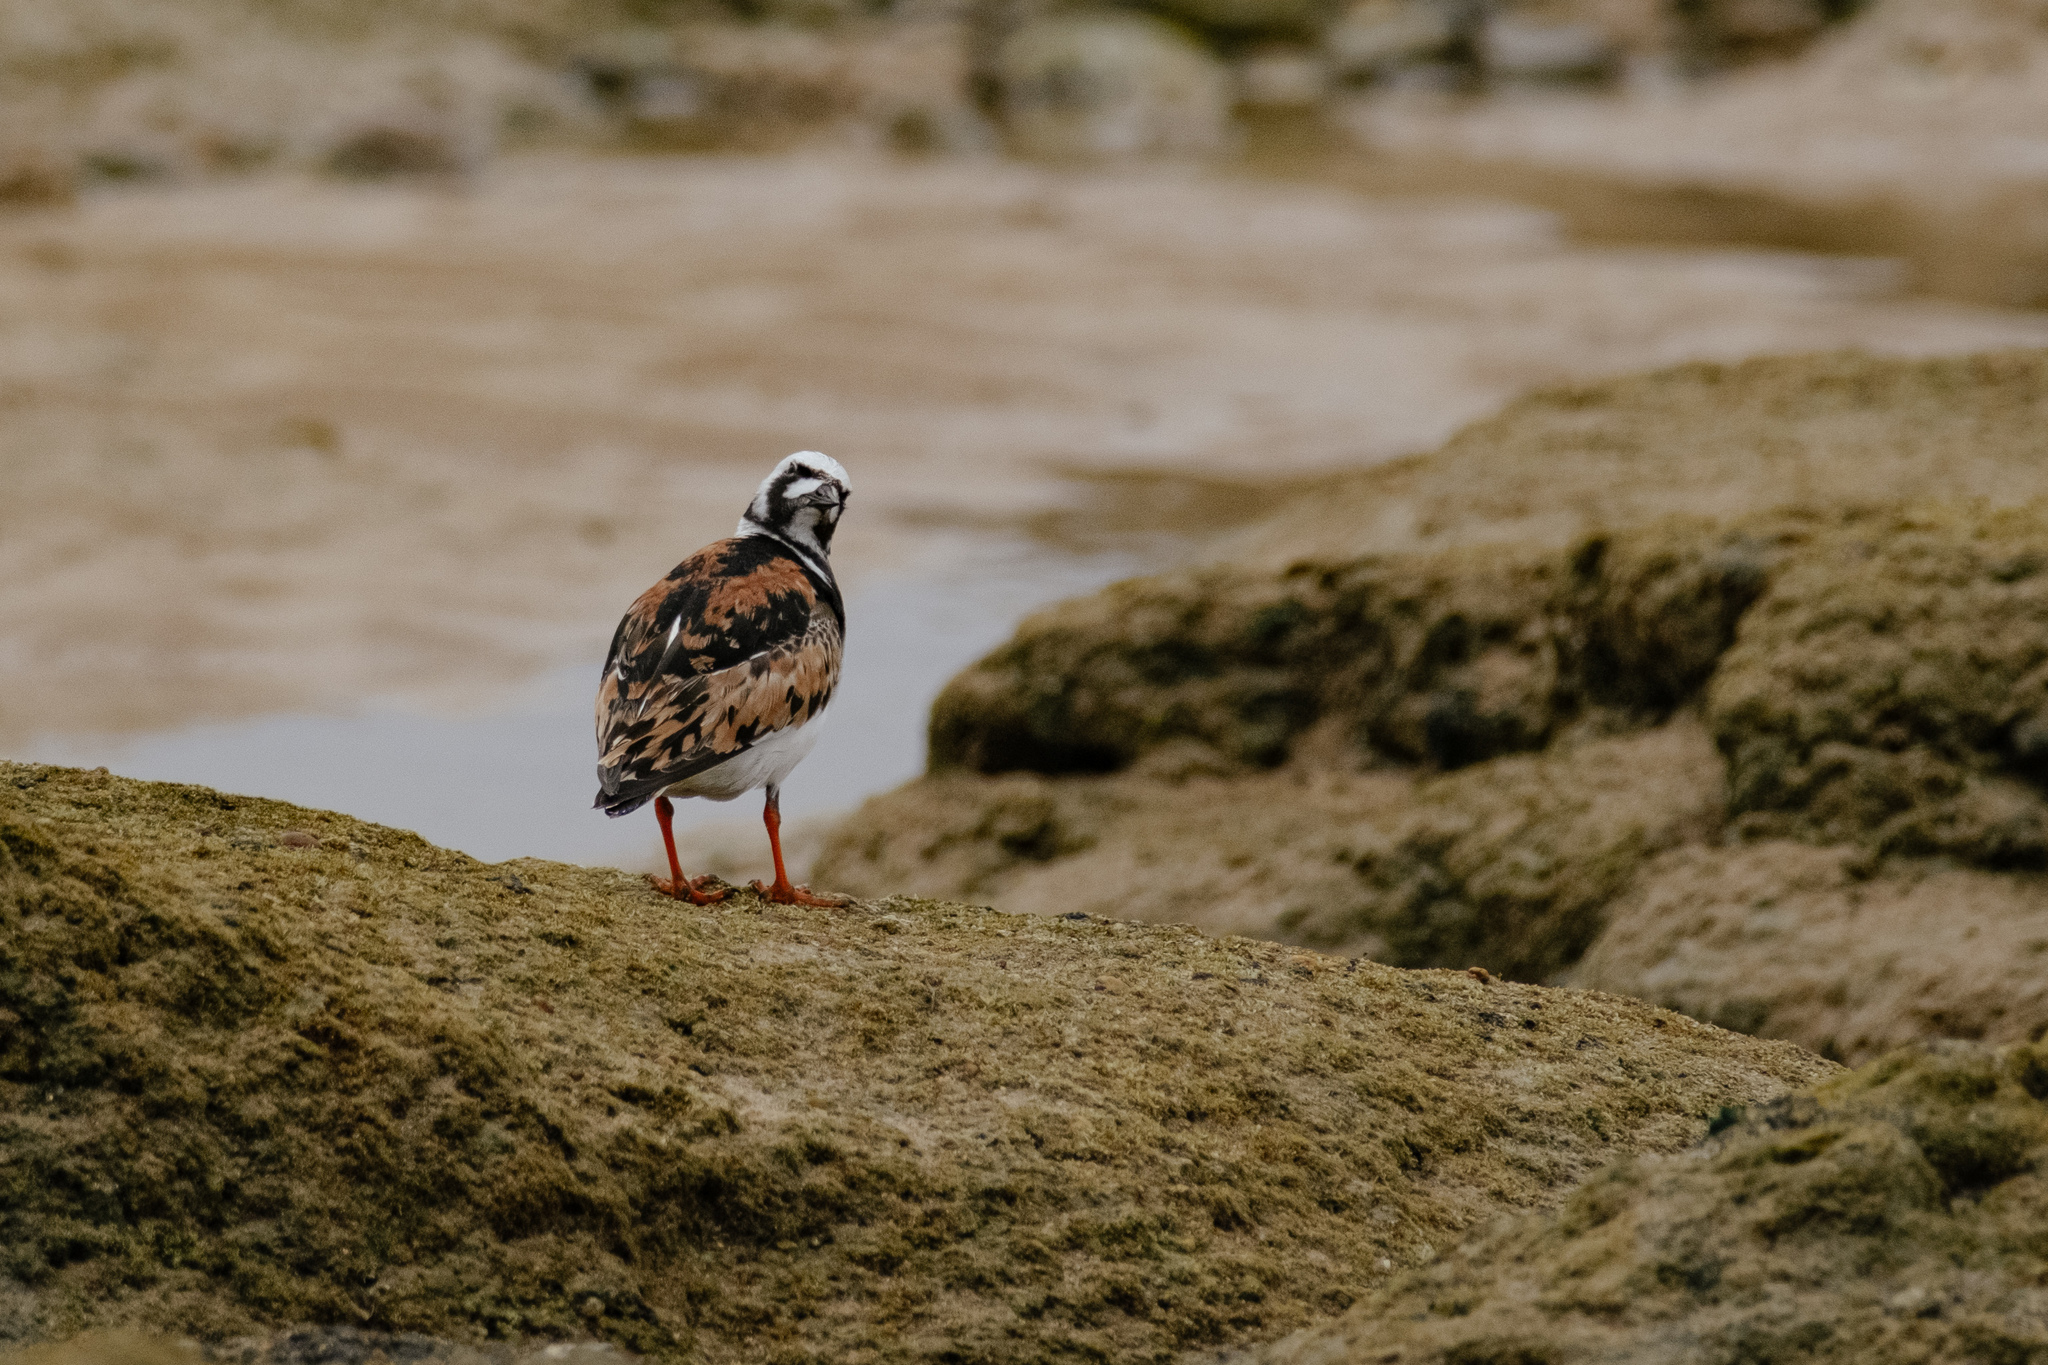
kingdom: Animalia
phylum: Chordata
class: Aves
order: Charadriiformes
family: Scolopacidae
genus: Arenaria
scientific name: Arenaria interpres
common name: Ruddy turnstone
